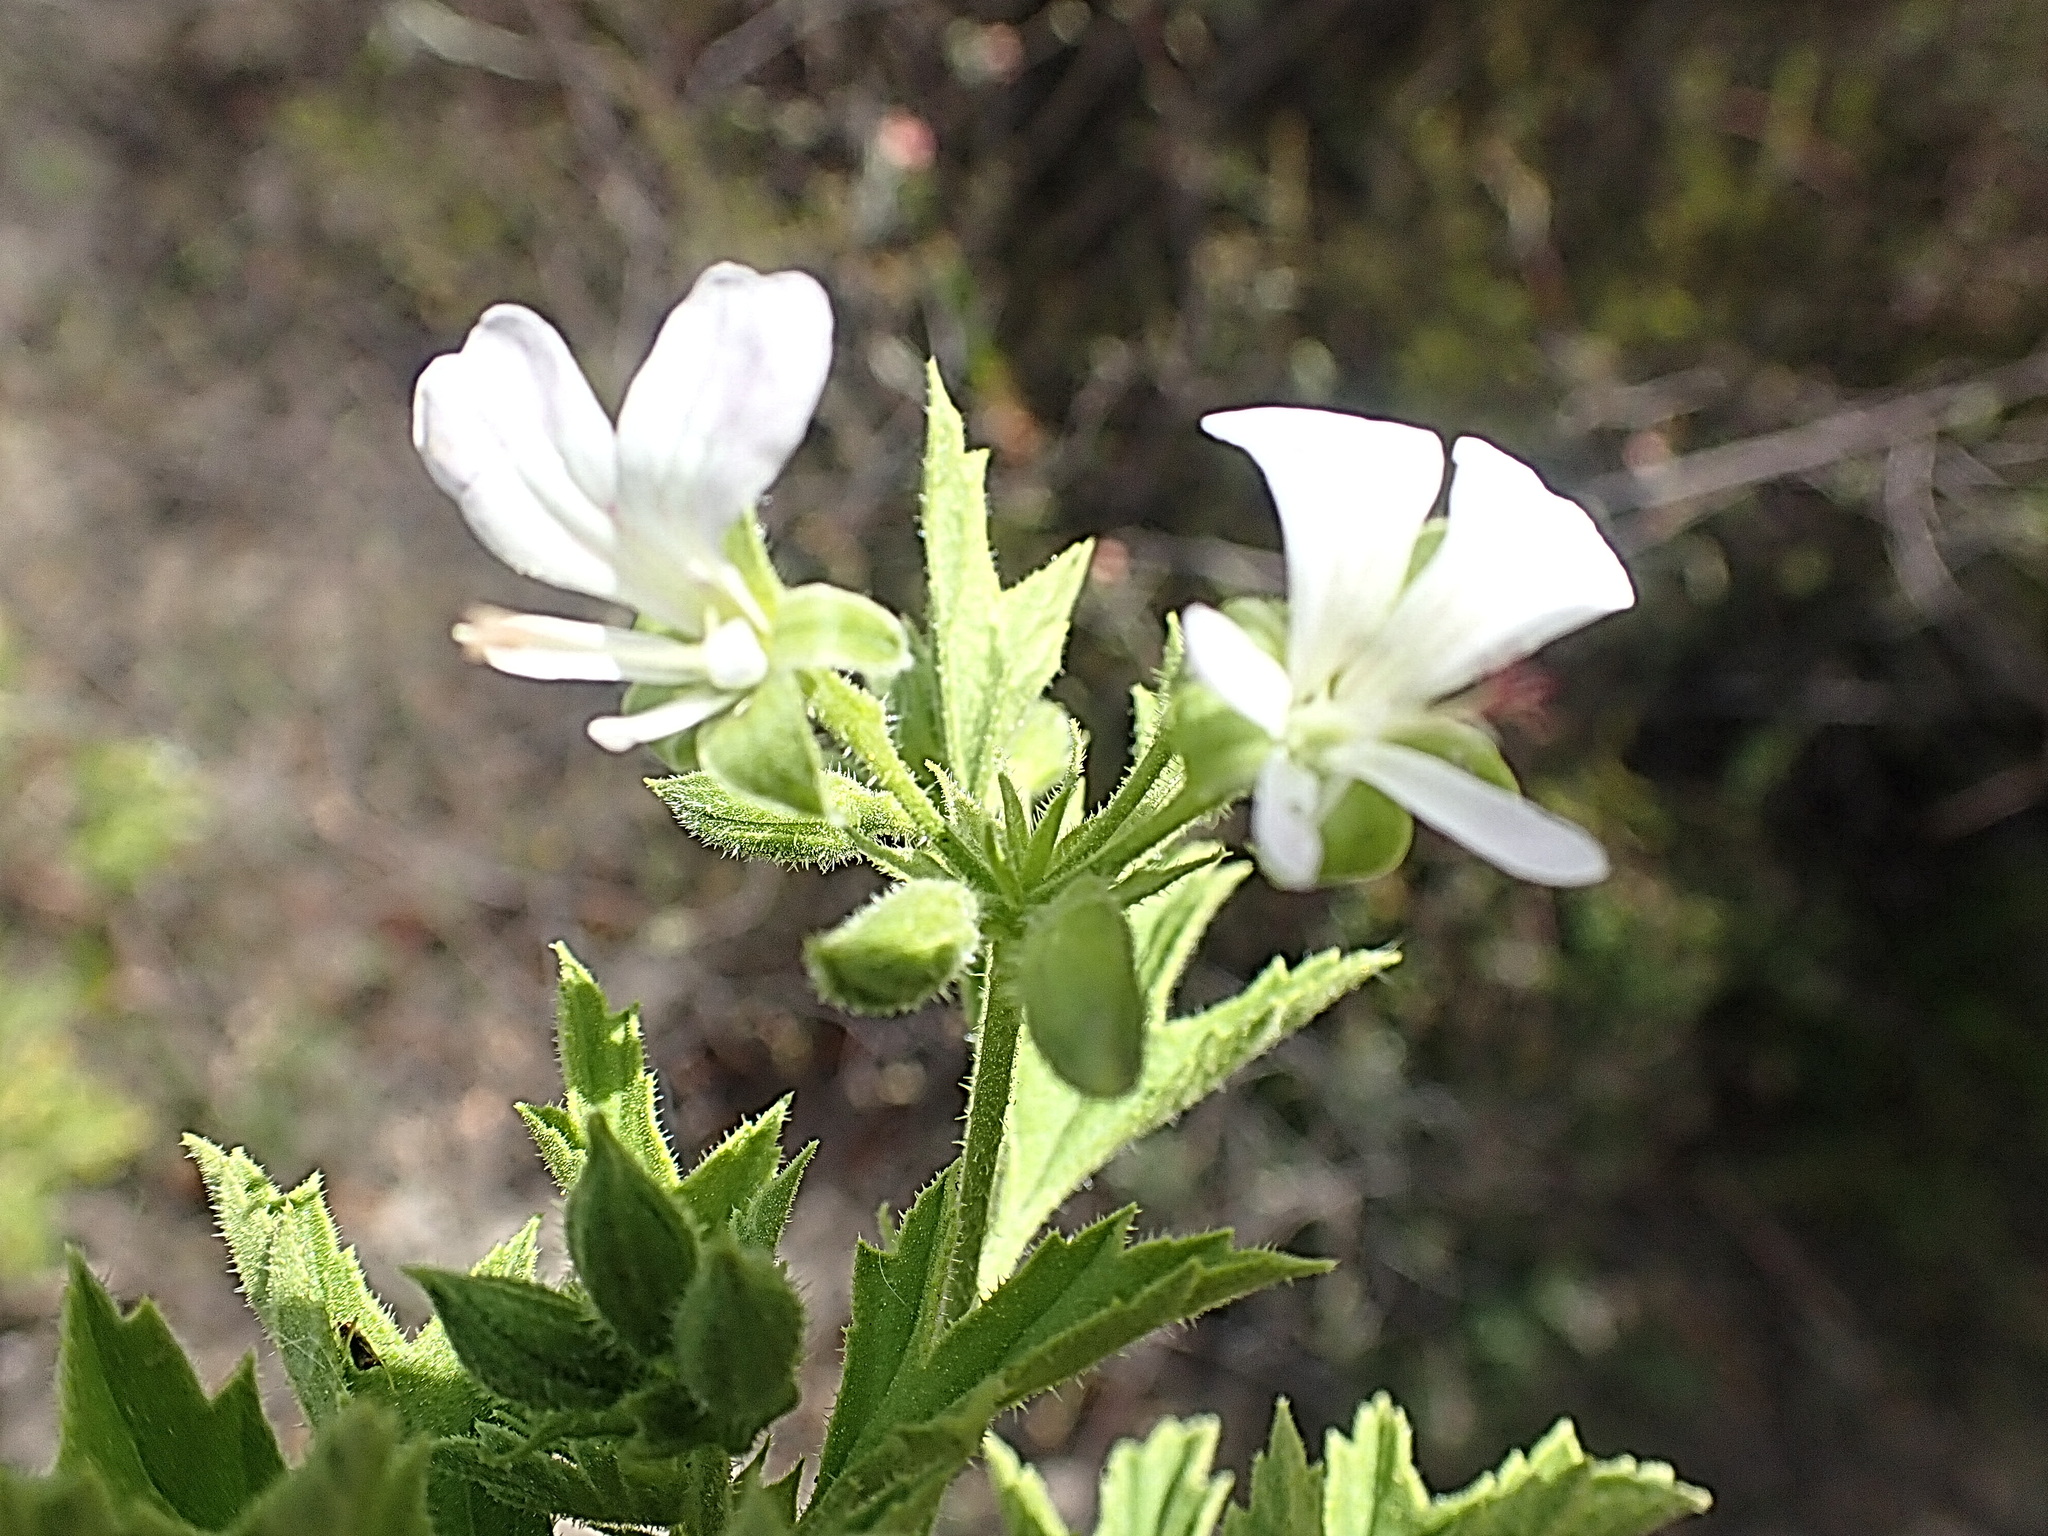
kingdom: Plantae
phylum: Tracheophyta
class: Magnoliopsida
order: Geraniales
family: Geraniaceae
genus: Pelargonium
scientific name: Pelargonium ribifolium
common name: Currant-leaf pelargonium
